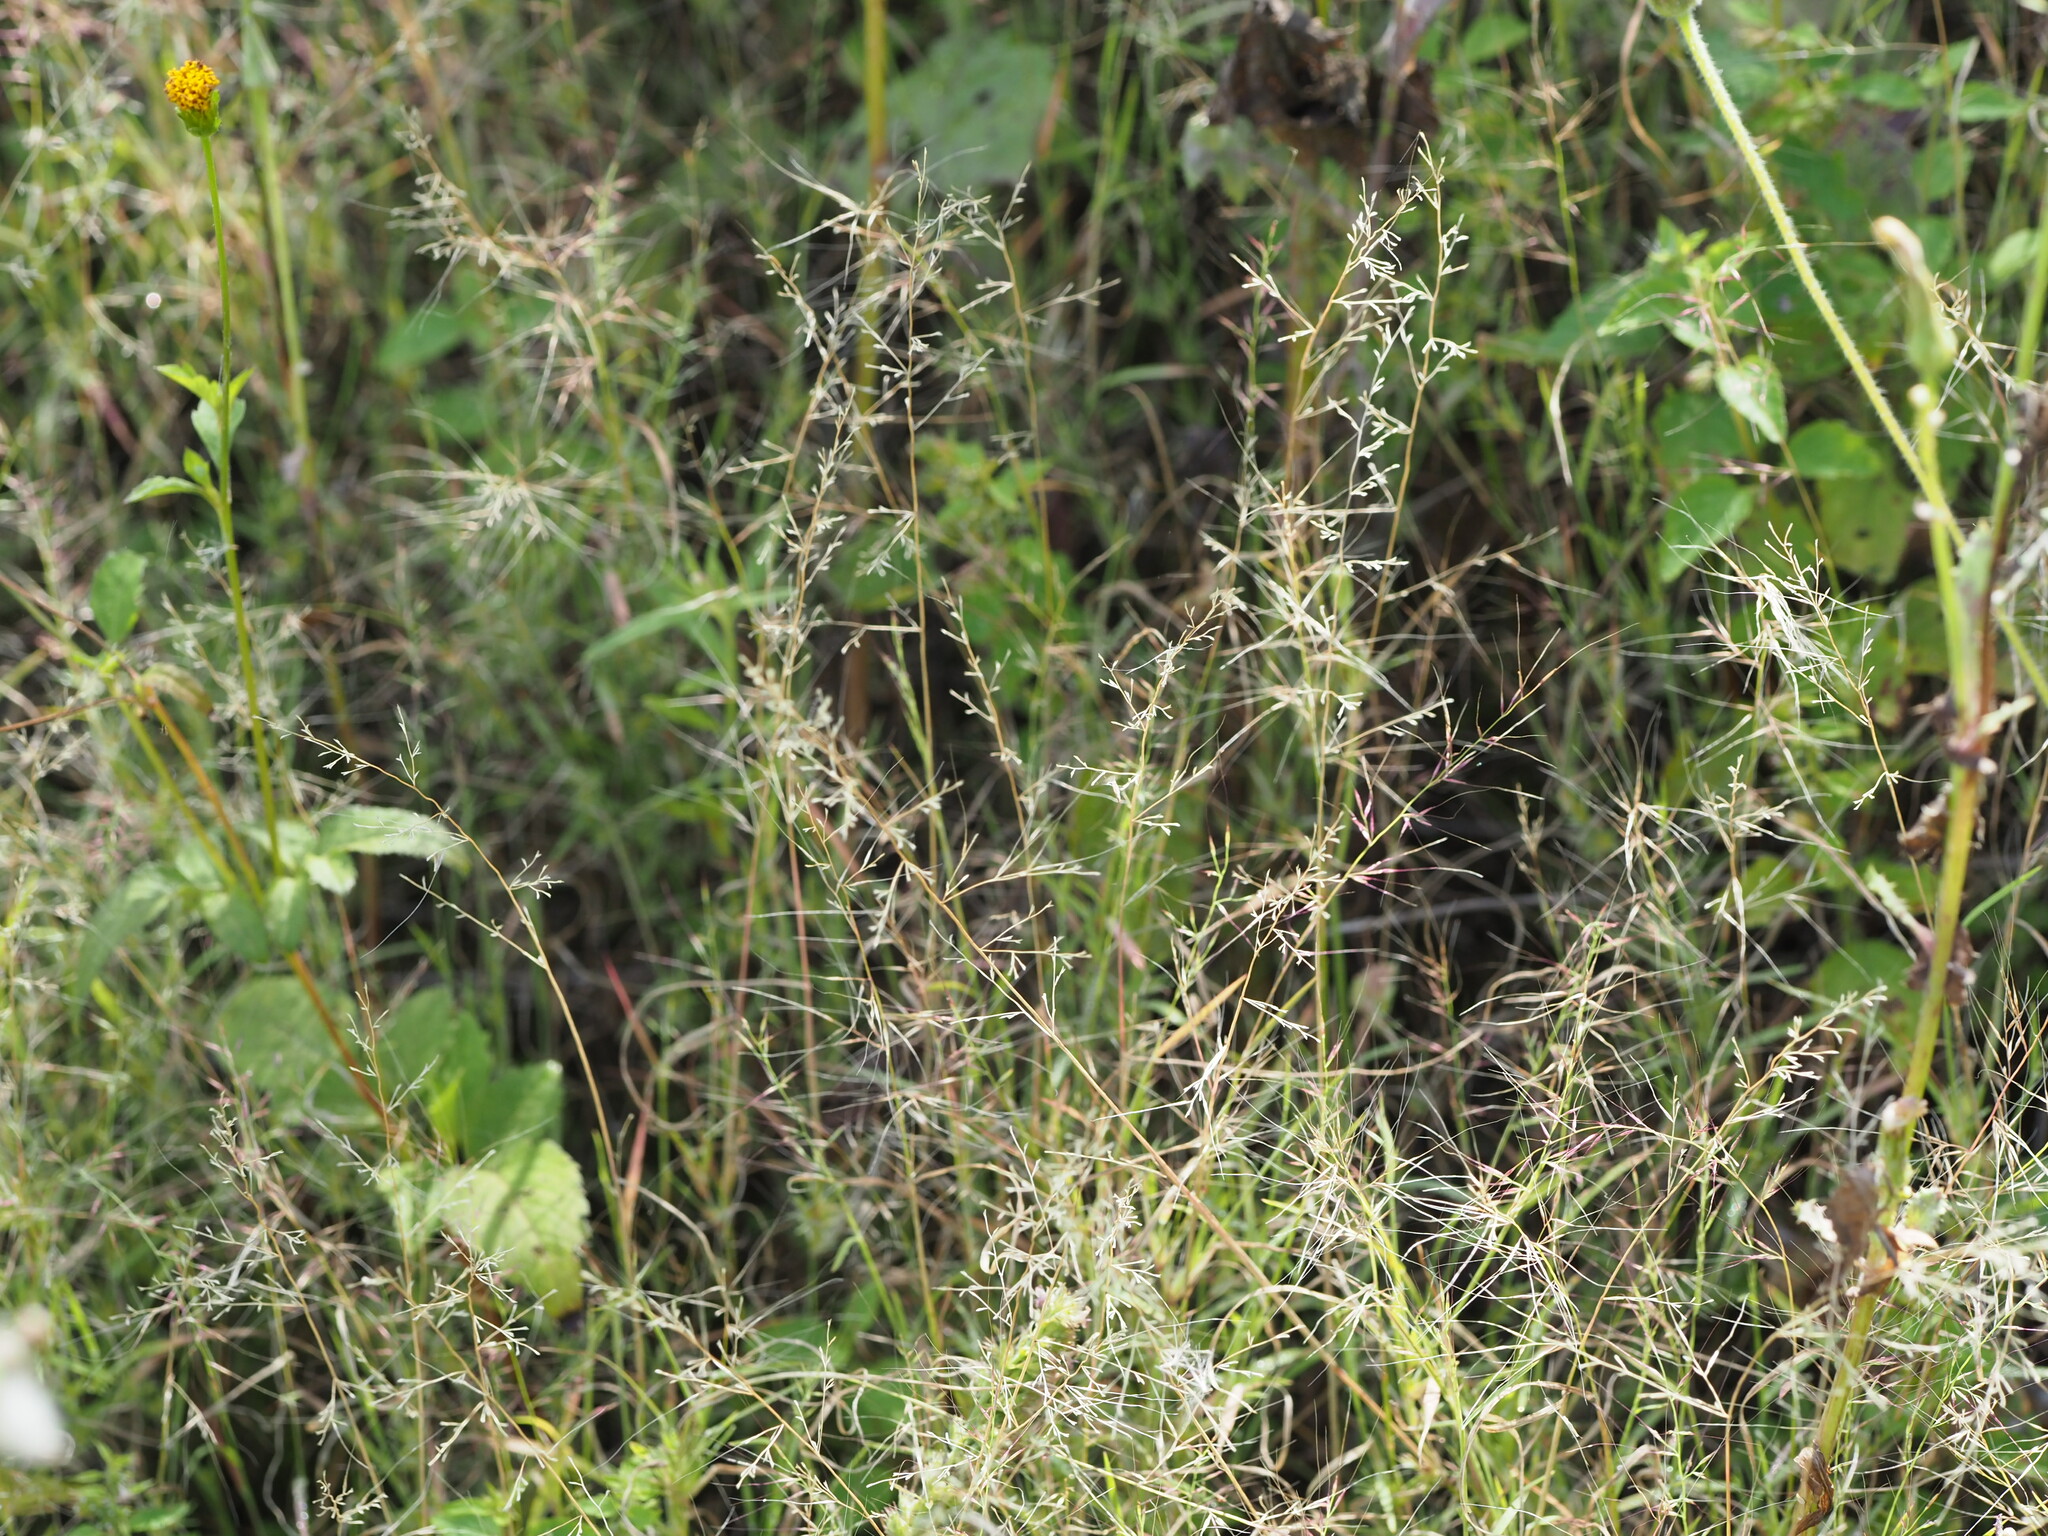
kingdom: Plantae
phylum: Tracheophyta
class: Liliopsida
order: Poales
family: Poaceae
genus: Muhlenbergia
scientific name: Muhlenbergia microsperma
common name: Littleseed muhly
